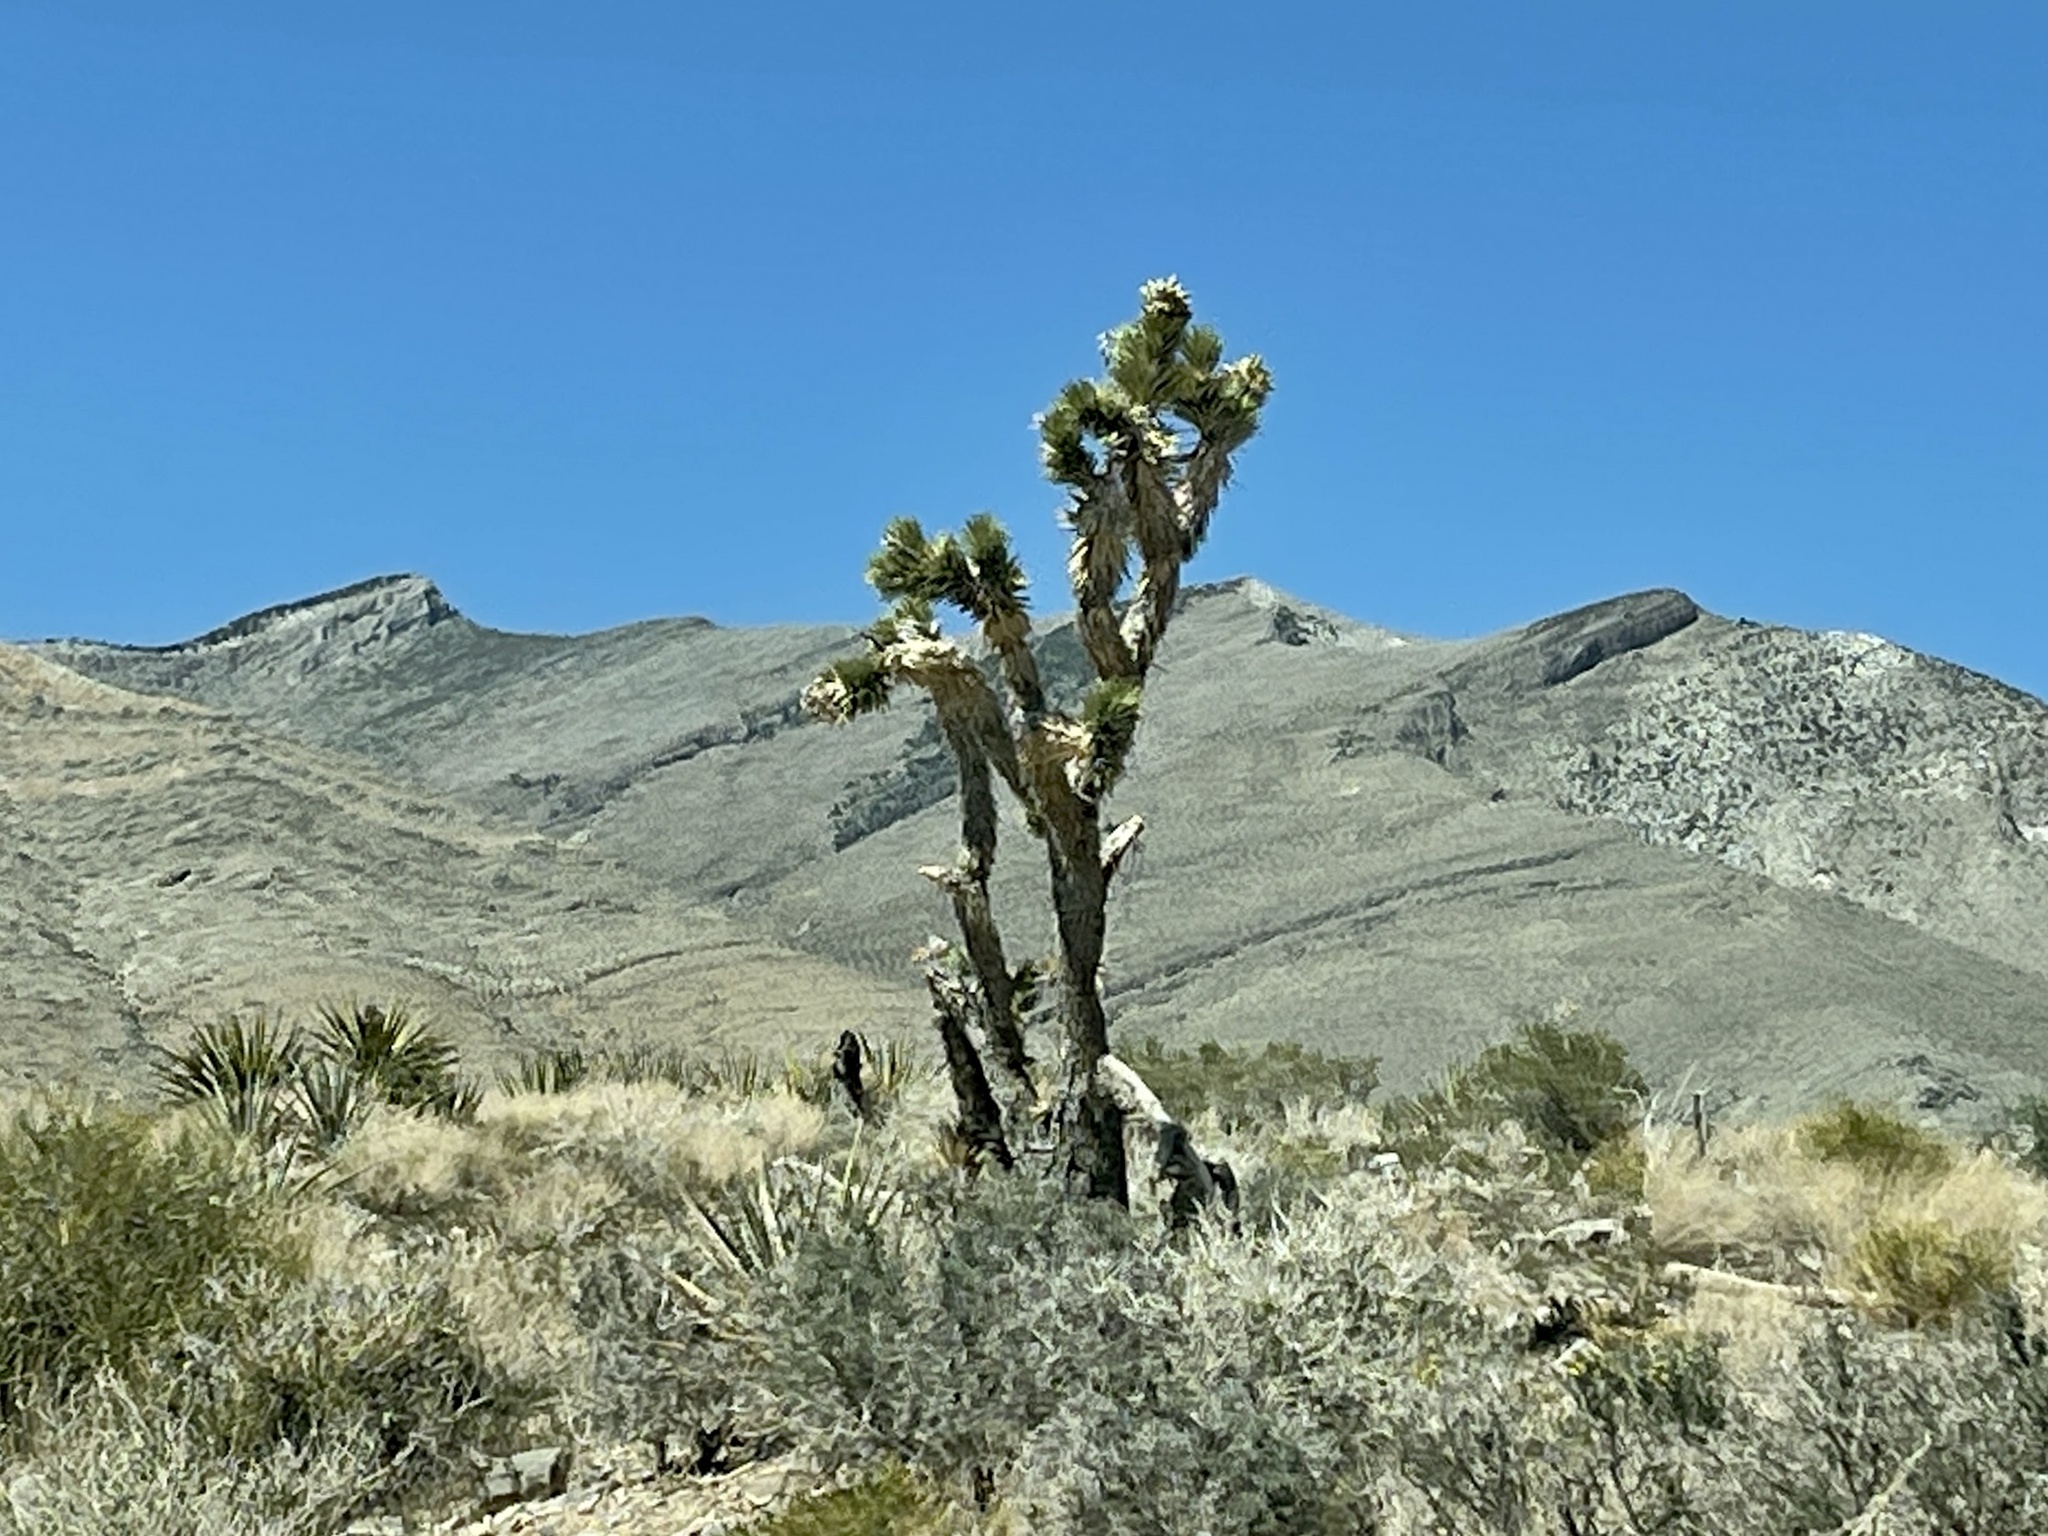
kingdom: Plantae
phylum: Tracheophyta
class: Liliopsida
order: Asparagales
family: Asparagaceae
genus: Yucca
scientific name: Yucca brevifolia
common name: Joshua tree
